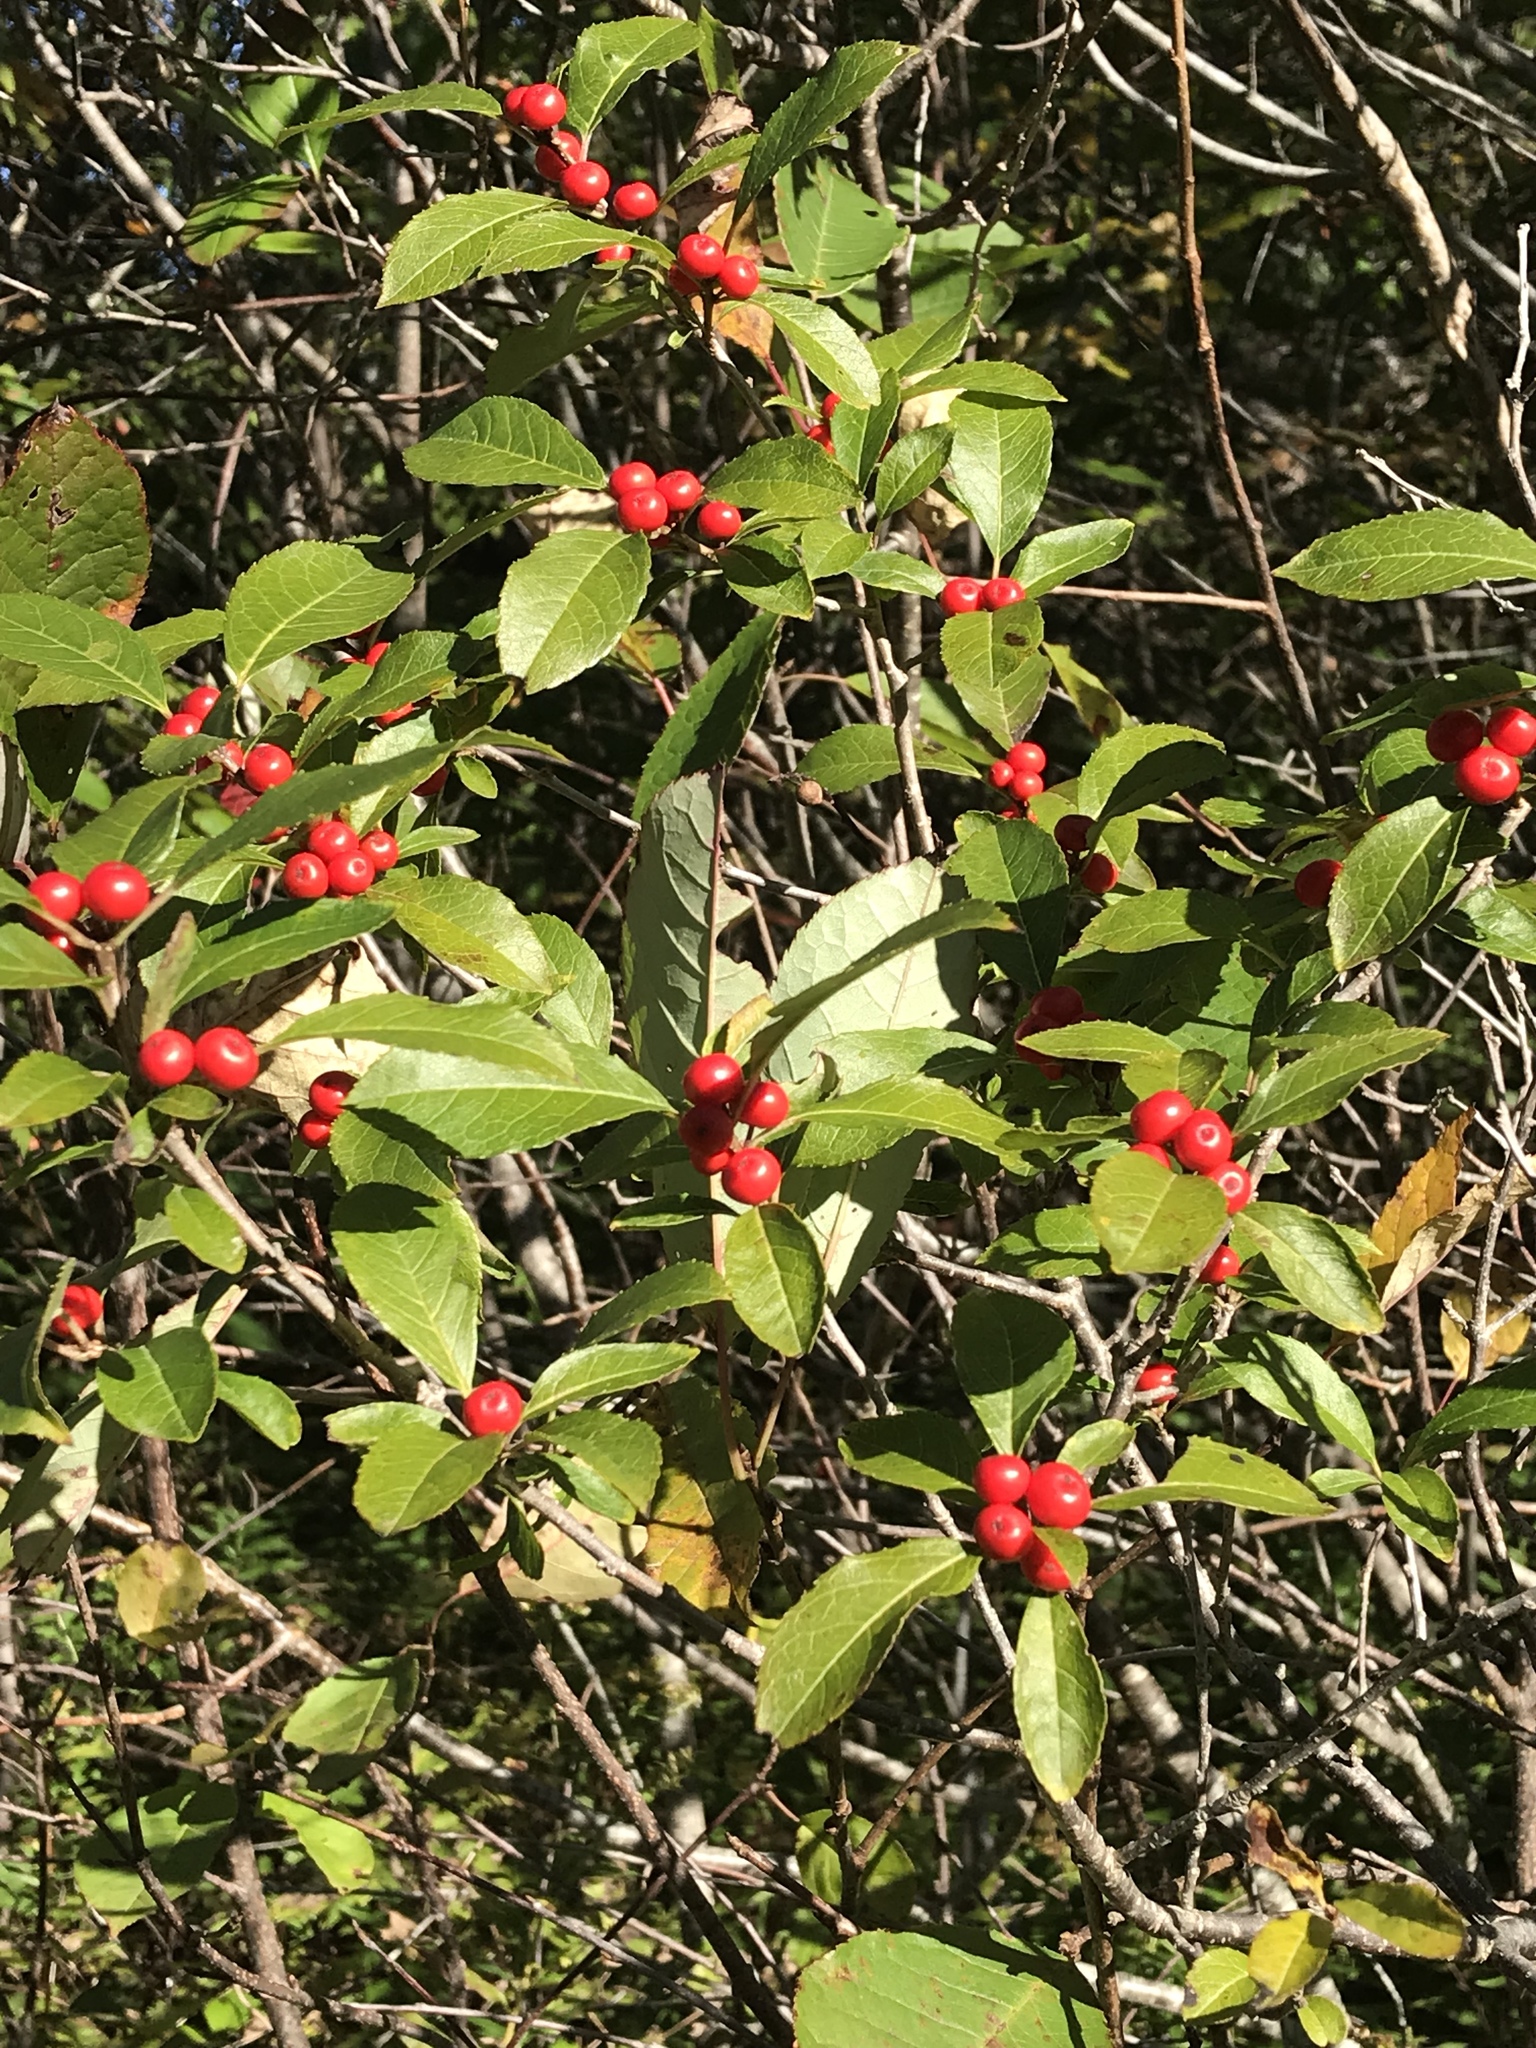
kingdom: Plantae
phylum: Tracheophyta
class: Magnoliopsida
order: Aquifoliales
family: Aquifoliaceae
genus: Ilex
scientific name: Ilex verticillata
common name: Virginia winterberry
